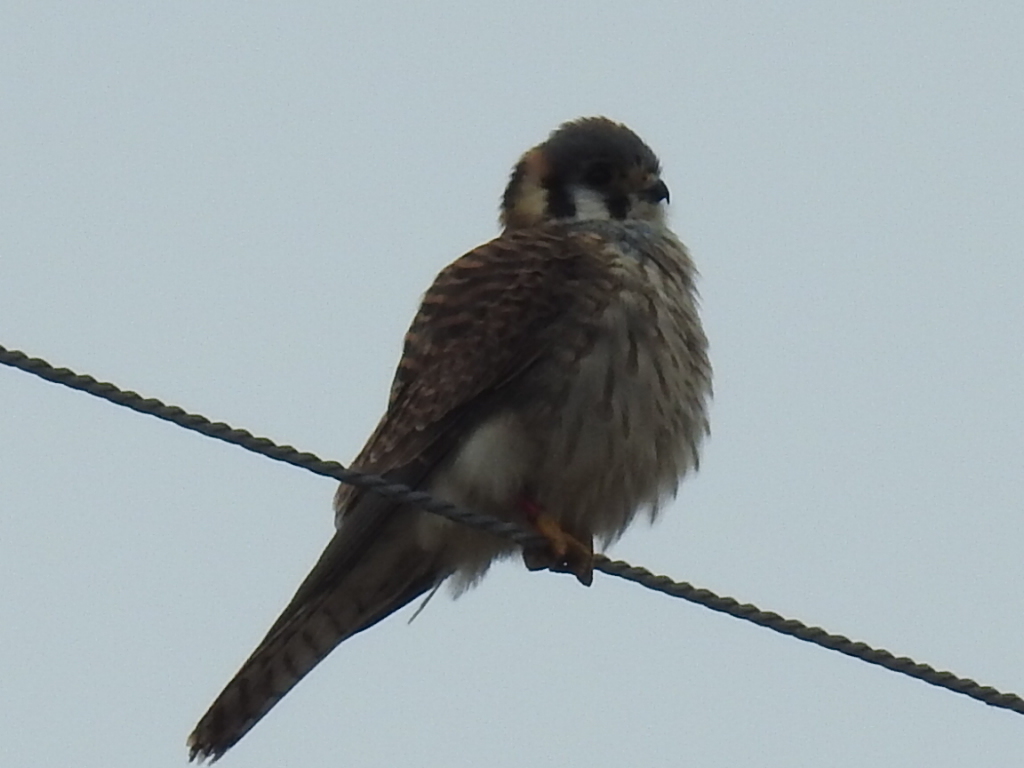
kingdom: Animalia
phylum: Chordata
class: Aves
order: Falconiformes
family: Falconidae
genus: Falco
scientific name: Falco sparverius
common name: American kestrel
